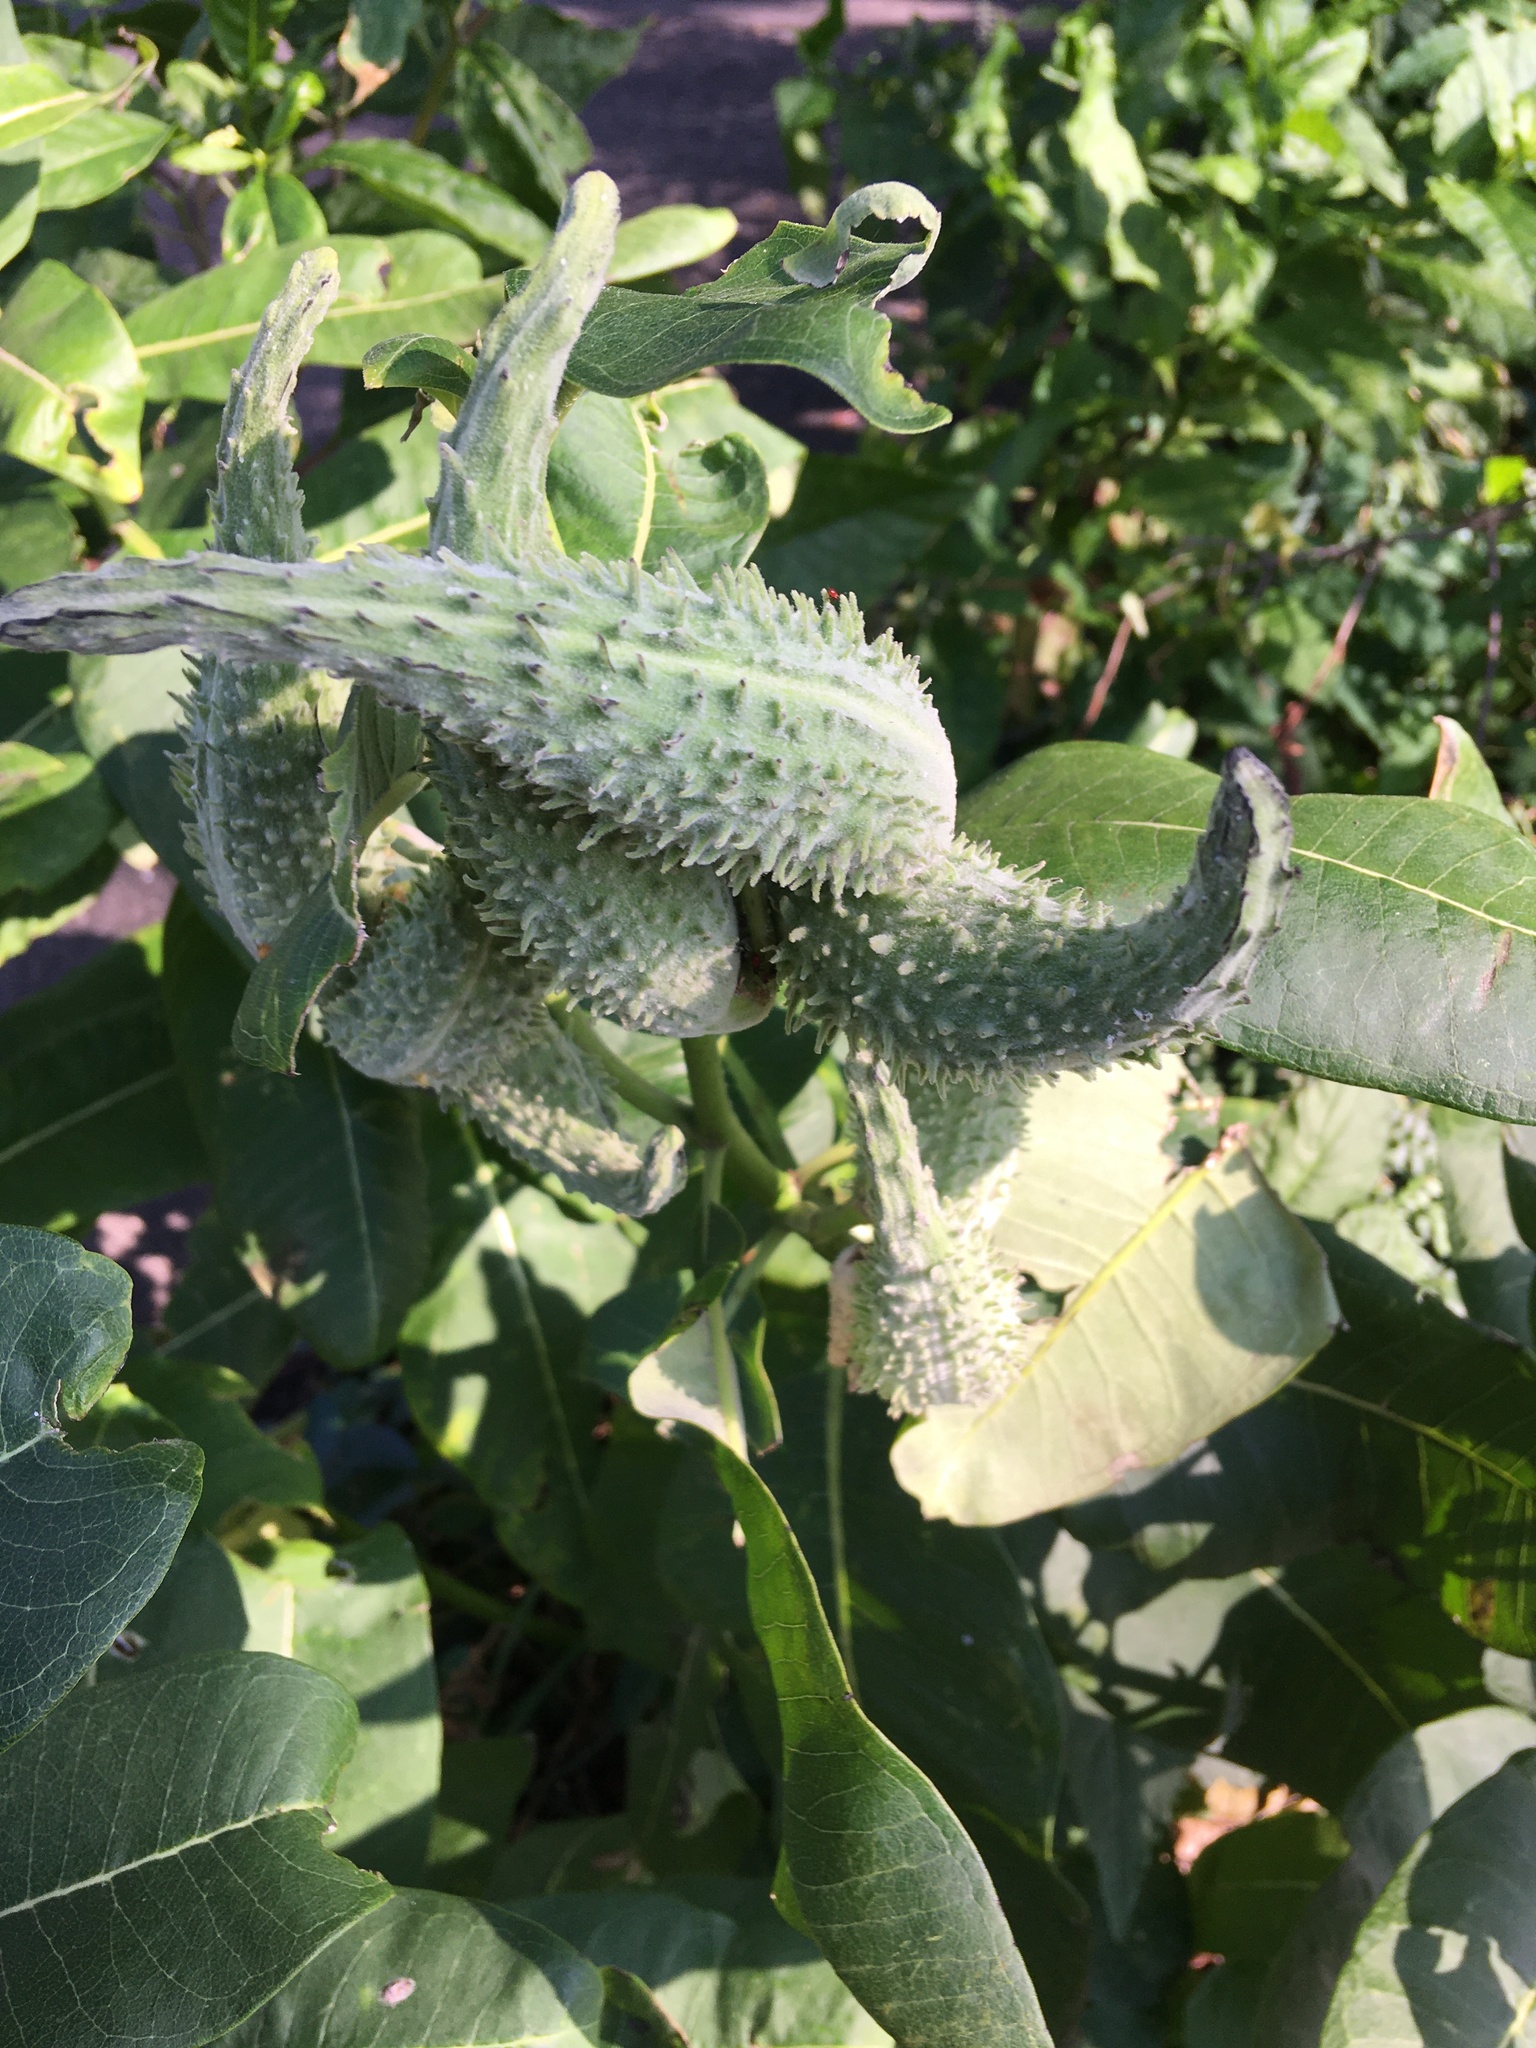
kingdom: Plantae
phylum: Tracheophyta
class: Magnoliopsida
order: Gentianales
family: Apocynaceae
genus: Asclepias
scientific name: Asclepias syriaca
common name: Common milkweed
